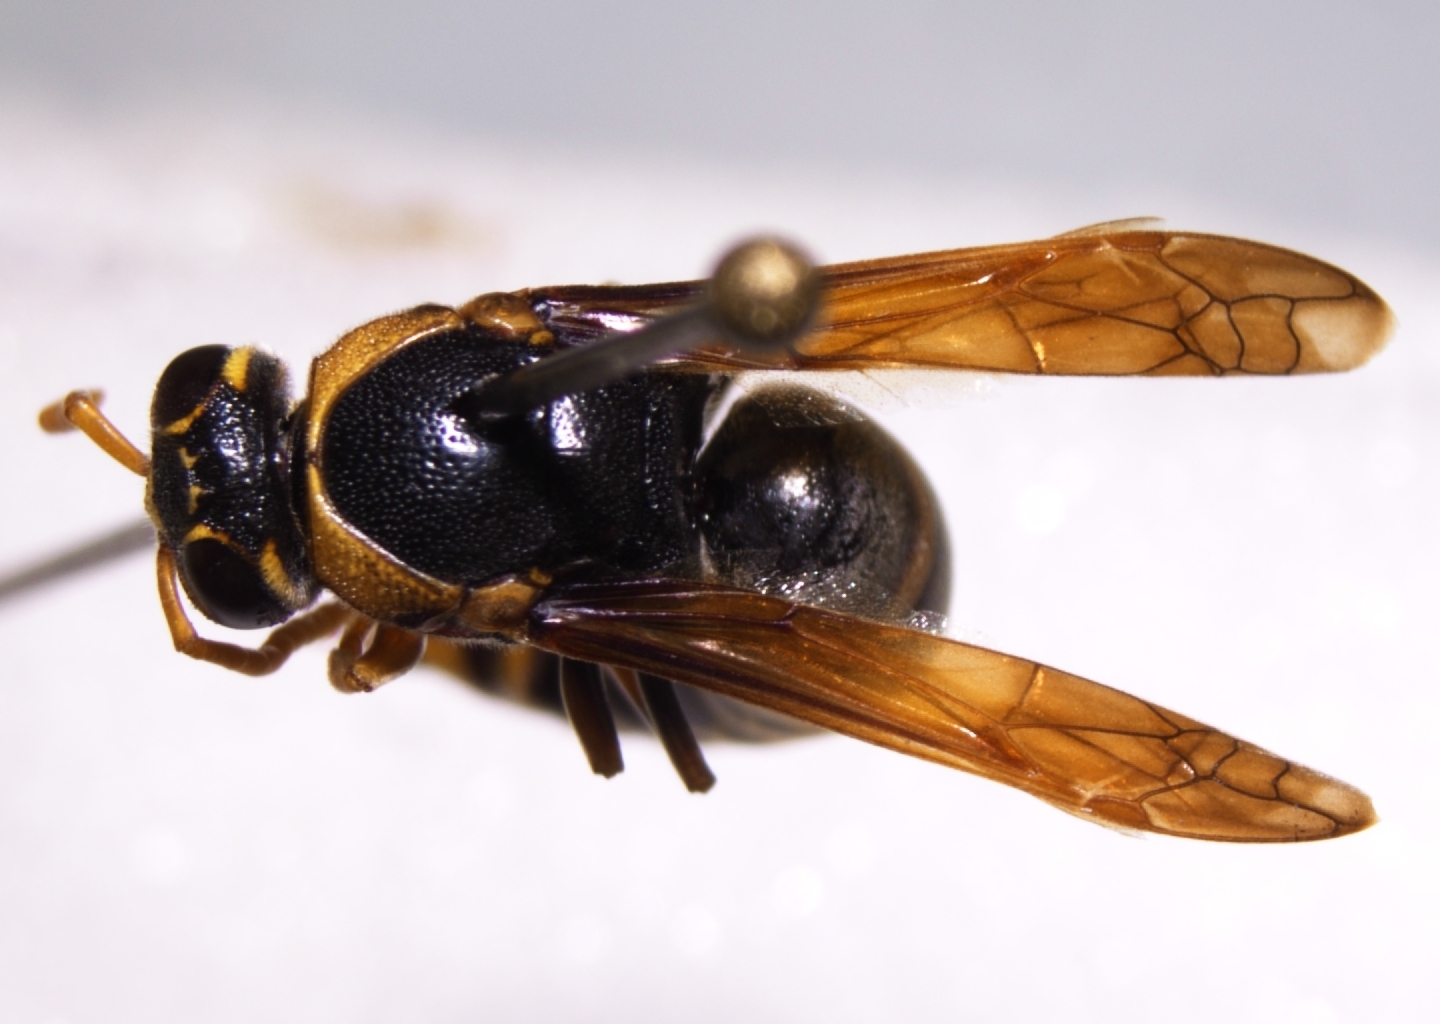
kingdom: Animalia
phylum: Arthropoda
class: Insecta
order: Hymenoptera
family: Eumenidae
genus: Rhynchium
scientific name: Rhynchium haemorrhoidale
